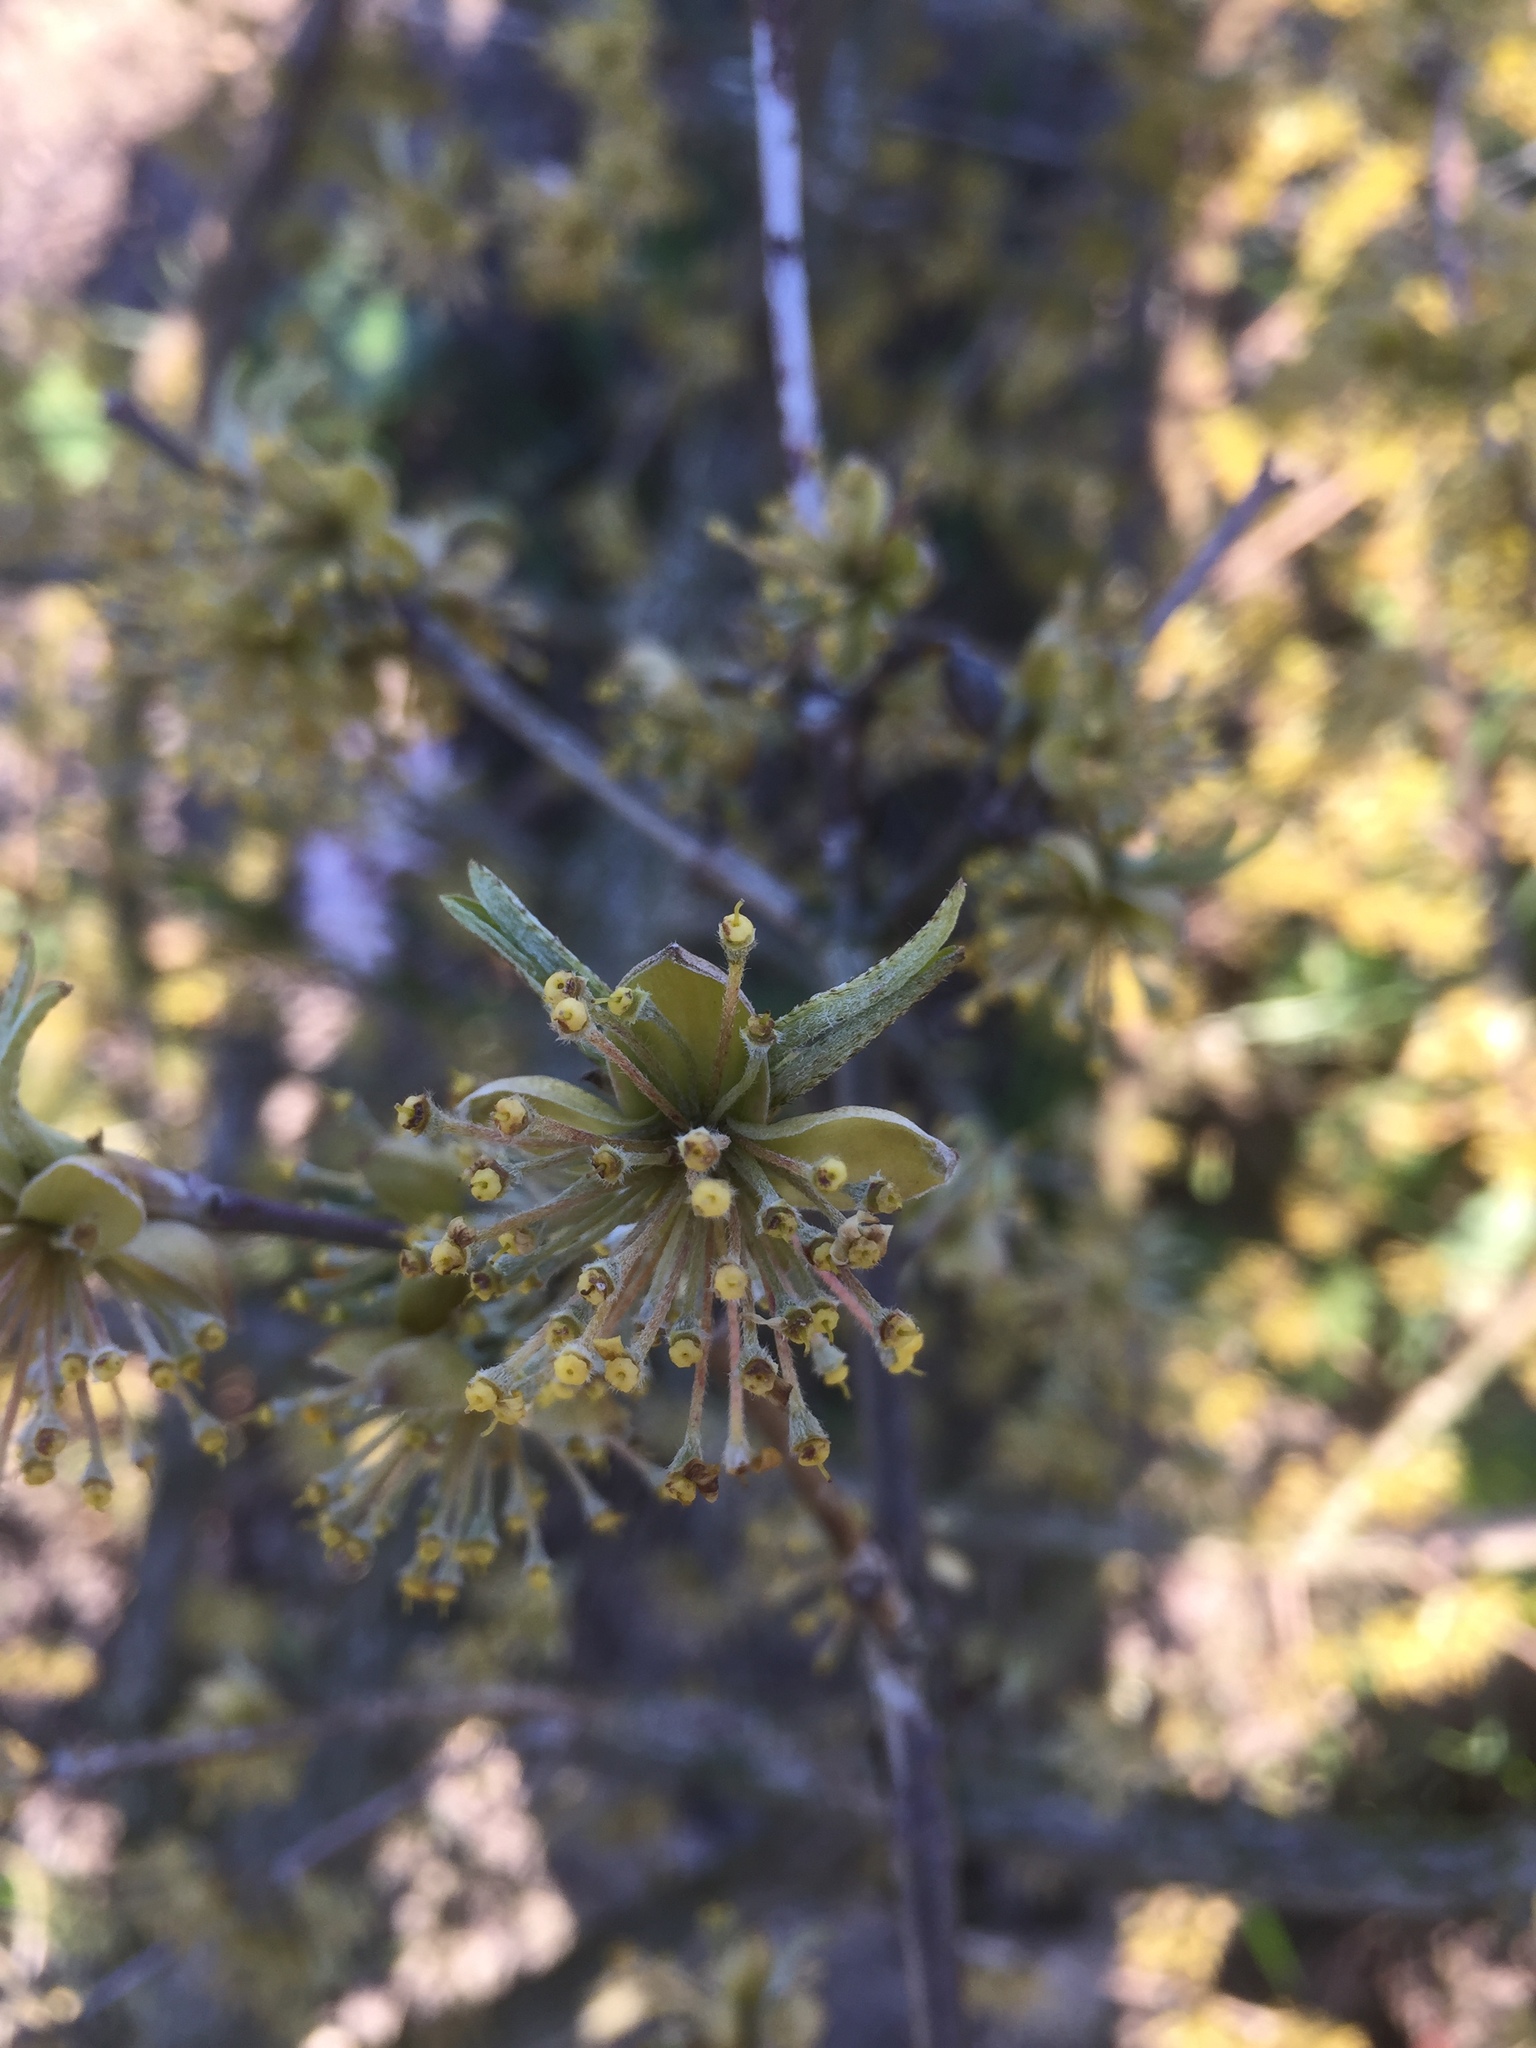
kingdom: Plantae
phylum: Tracheophyta
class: Magnoliopsida
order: Cornales
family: Cornaceae
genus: Cornus
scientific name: Cornus mas
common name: Cornelian-cherry
